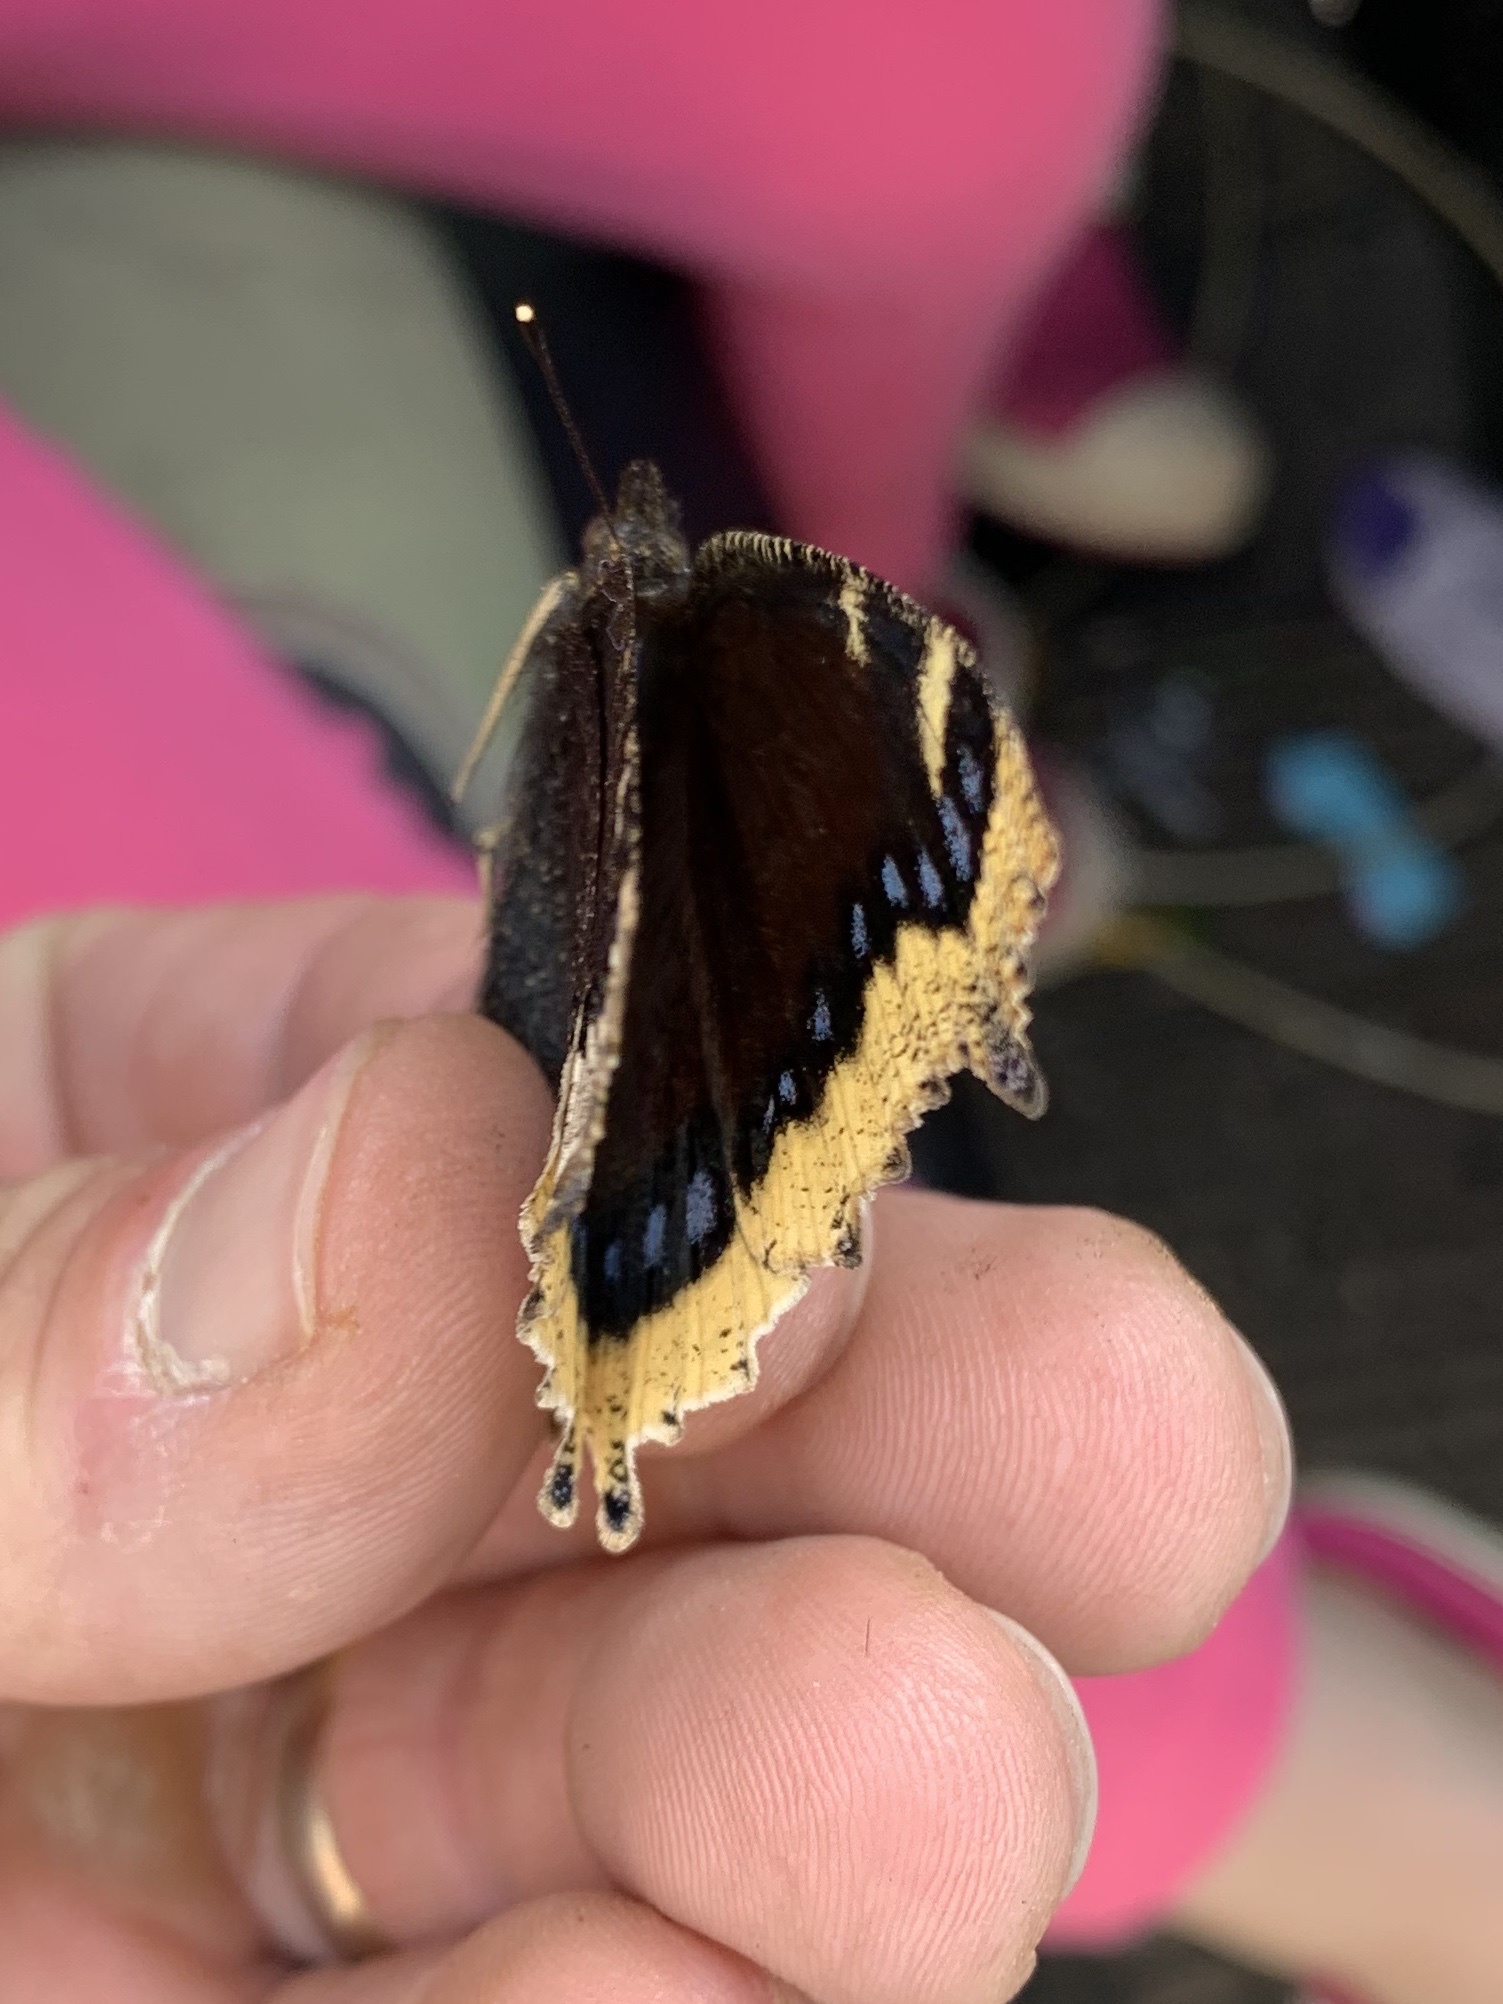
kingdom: Animalia
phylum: Arthropoda
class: Insecta
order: Lepidoptera
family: Nymphalidae
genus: Nymphalis
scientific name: Nymphalis antiopa
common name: Camberwell beauty
